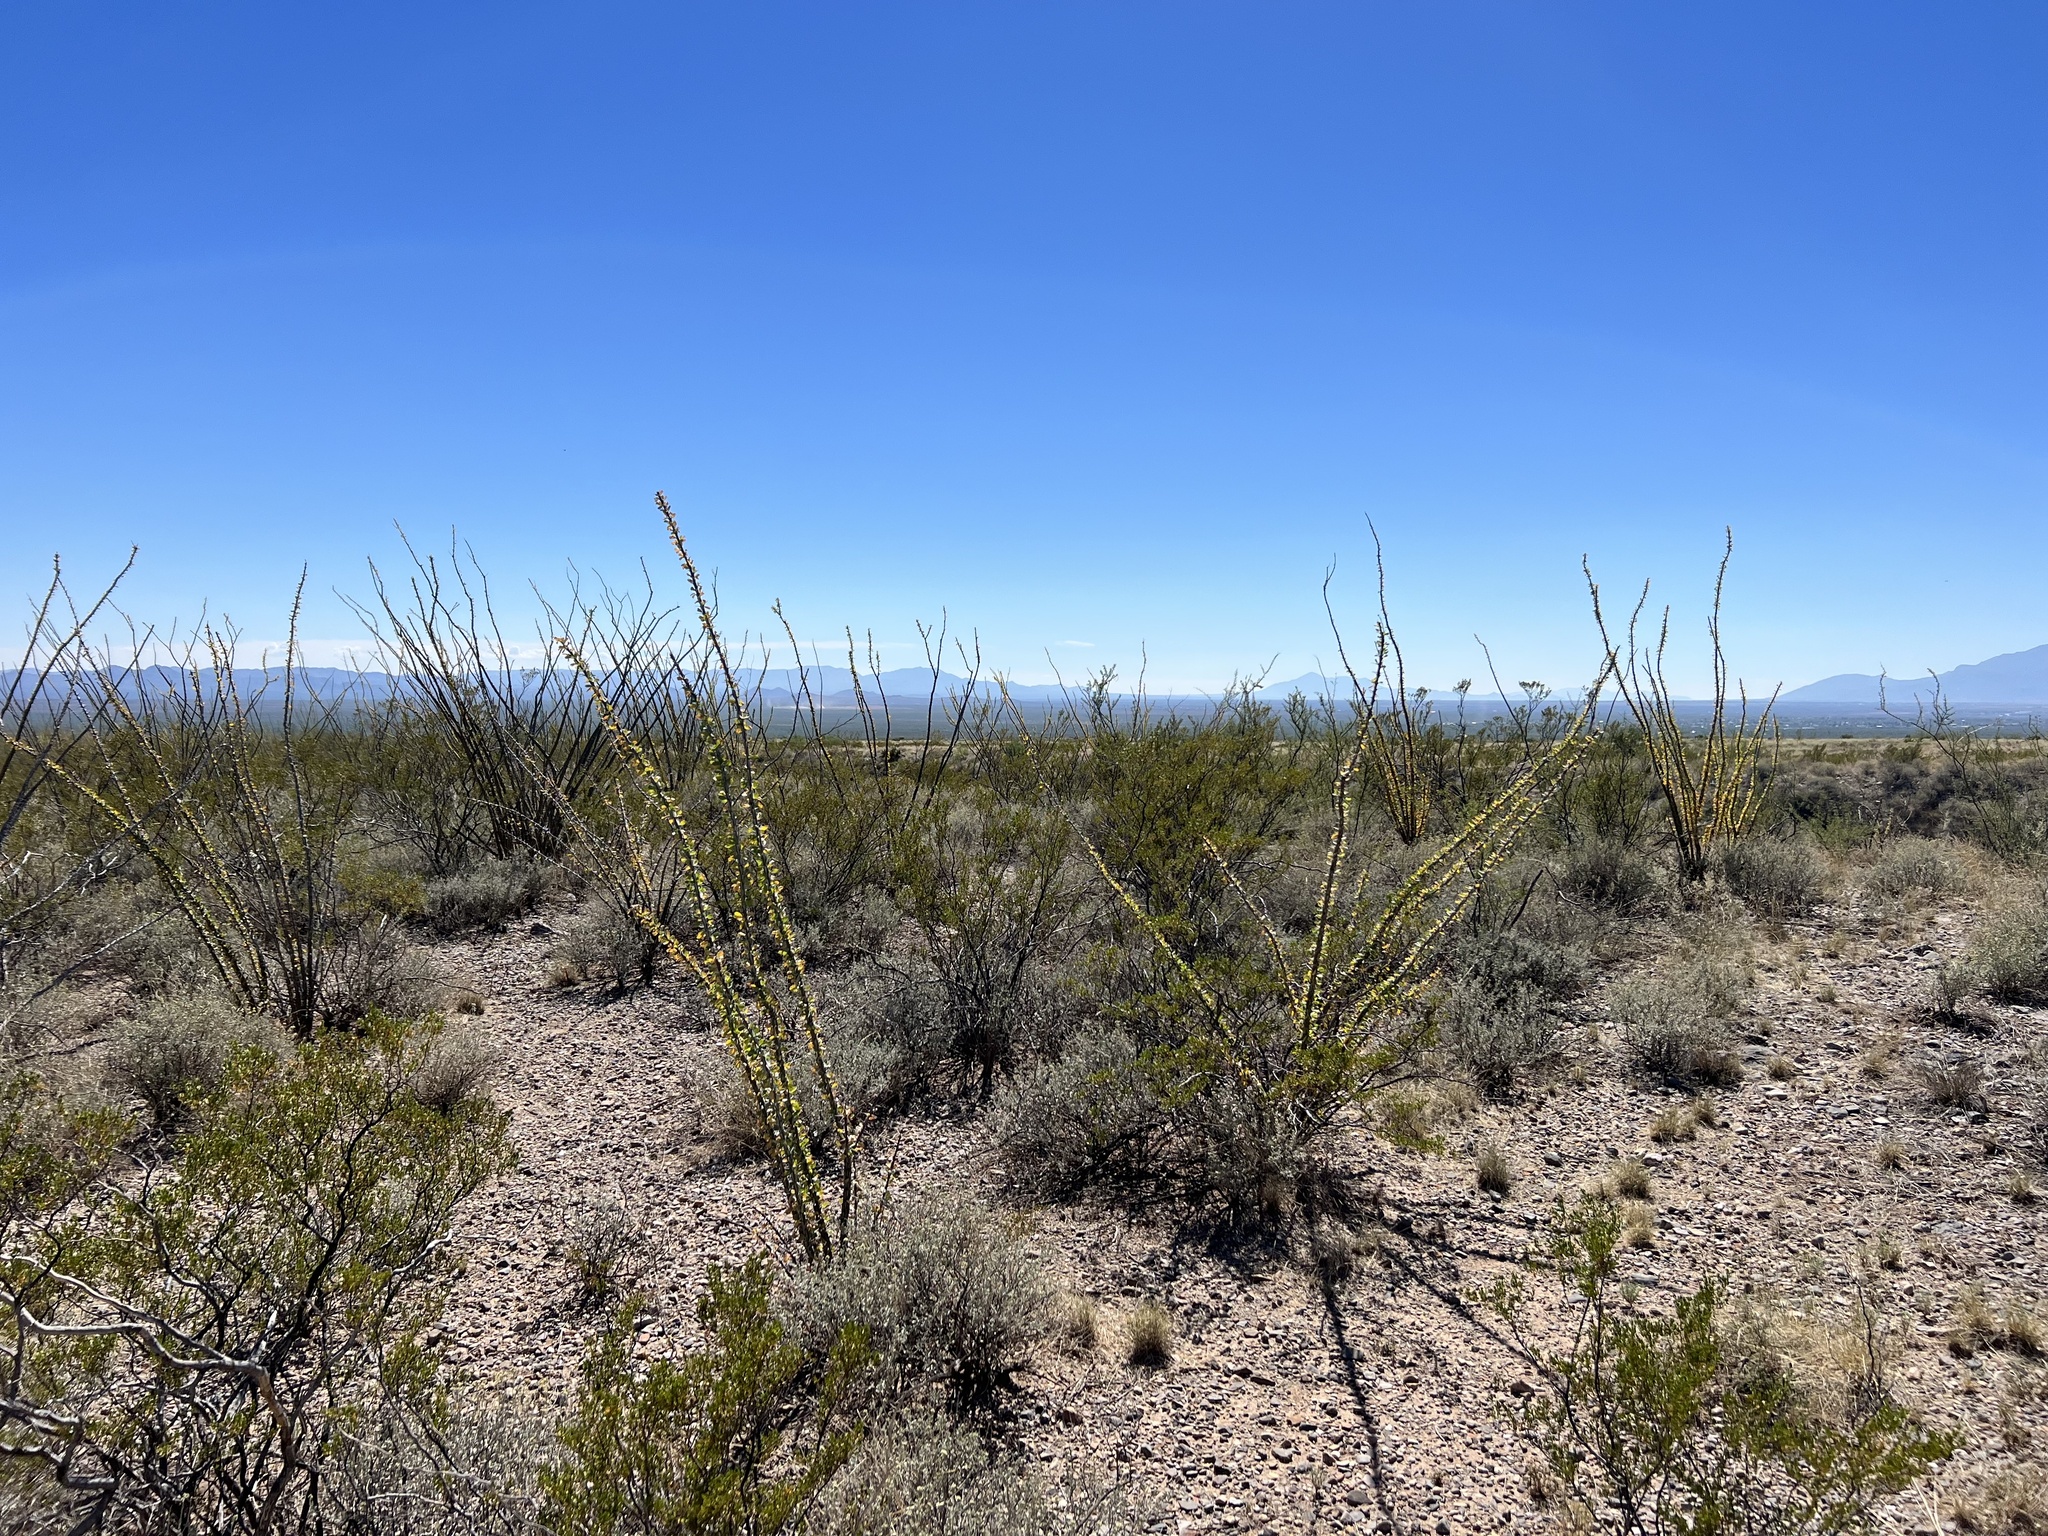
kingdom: Plantae
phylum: Tracheophyta
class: Magnoliopsida
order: Ericales
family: Fouquieriaceae
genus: Fouquieria
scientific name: Fouquieria splendens
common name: Vine-cactus
